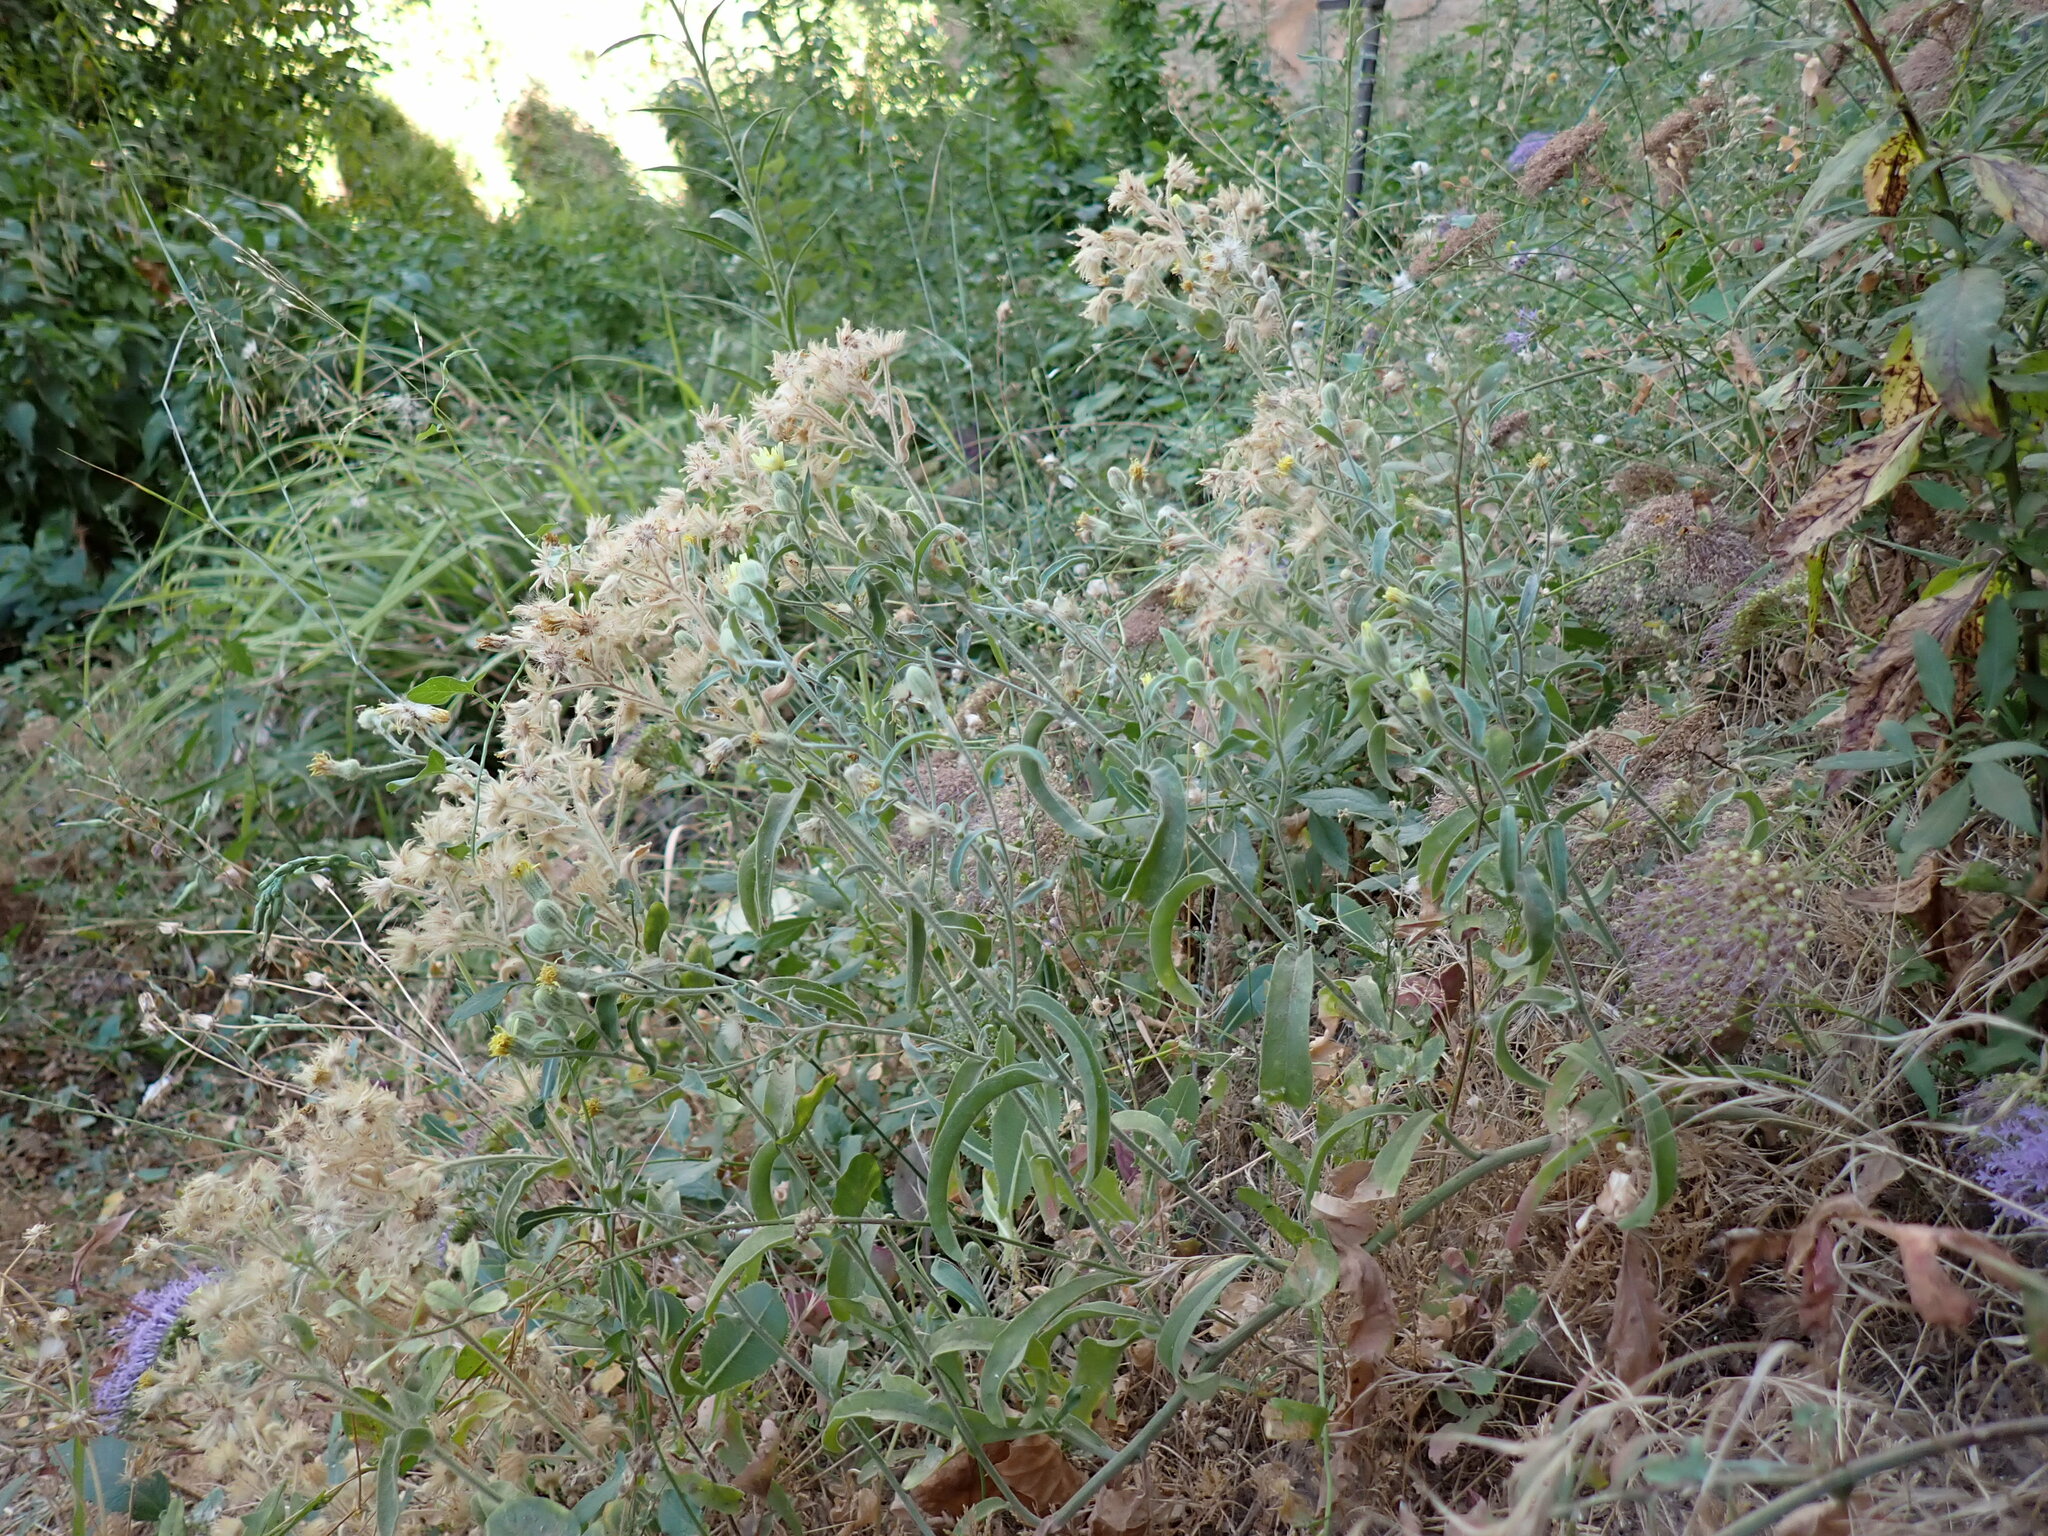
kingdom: Plantae
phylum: Tracheophyta
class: Magnoliopsida
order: Asterales
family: Asteraceae
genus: Andryala
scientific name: Andryala integrifolia
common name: Common andryala
